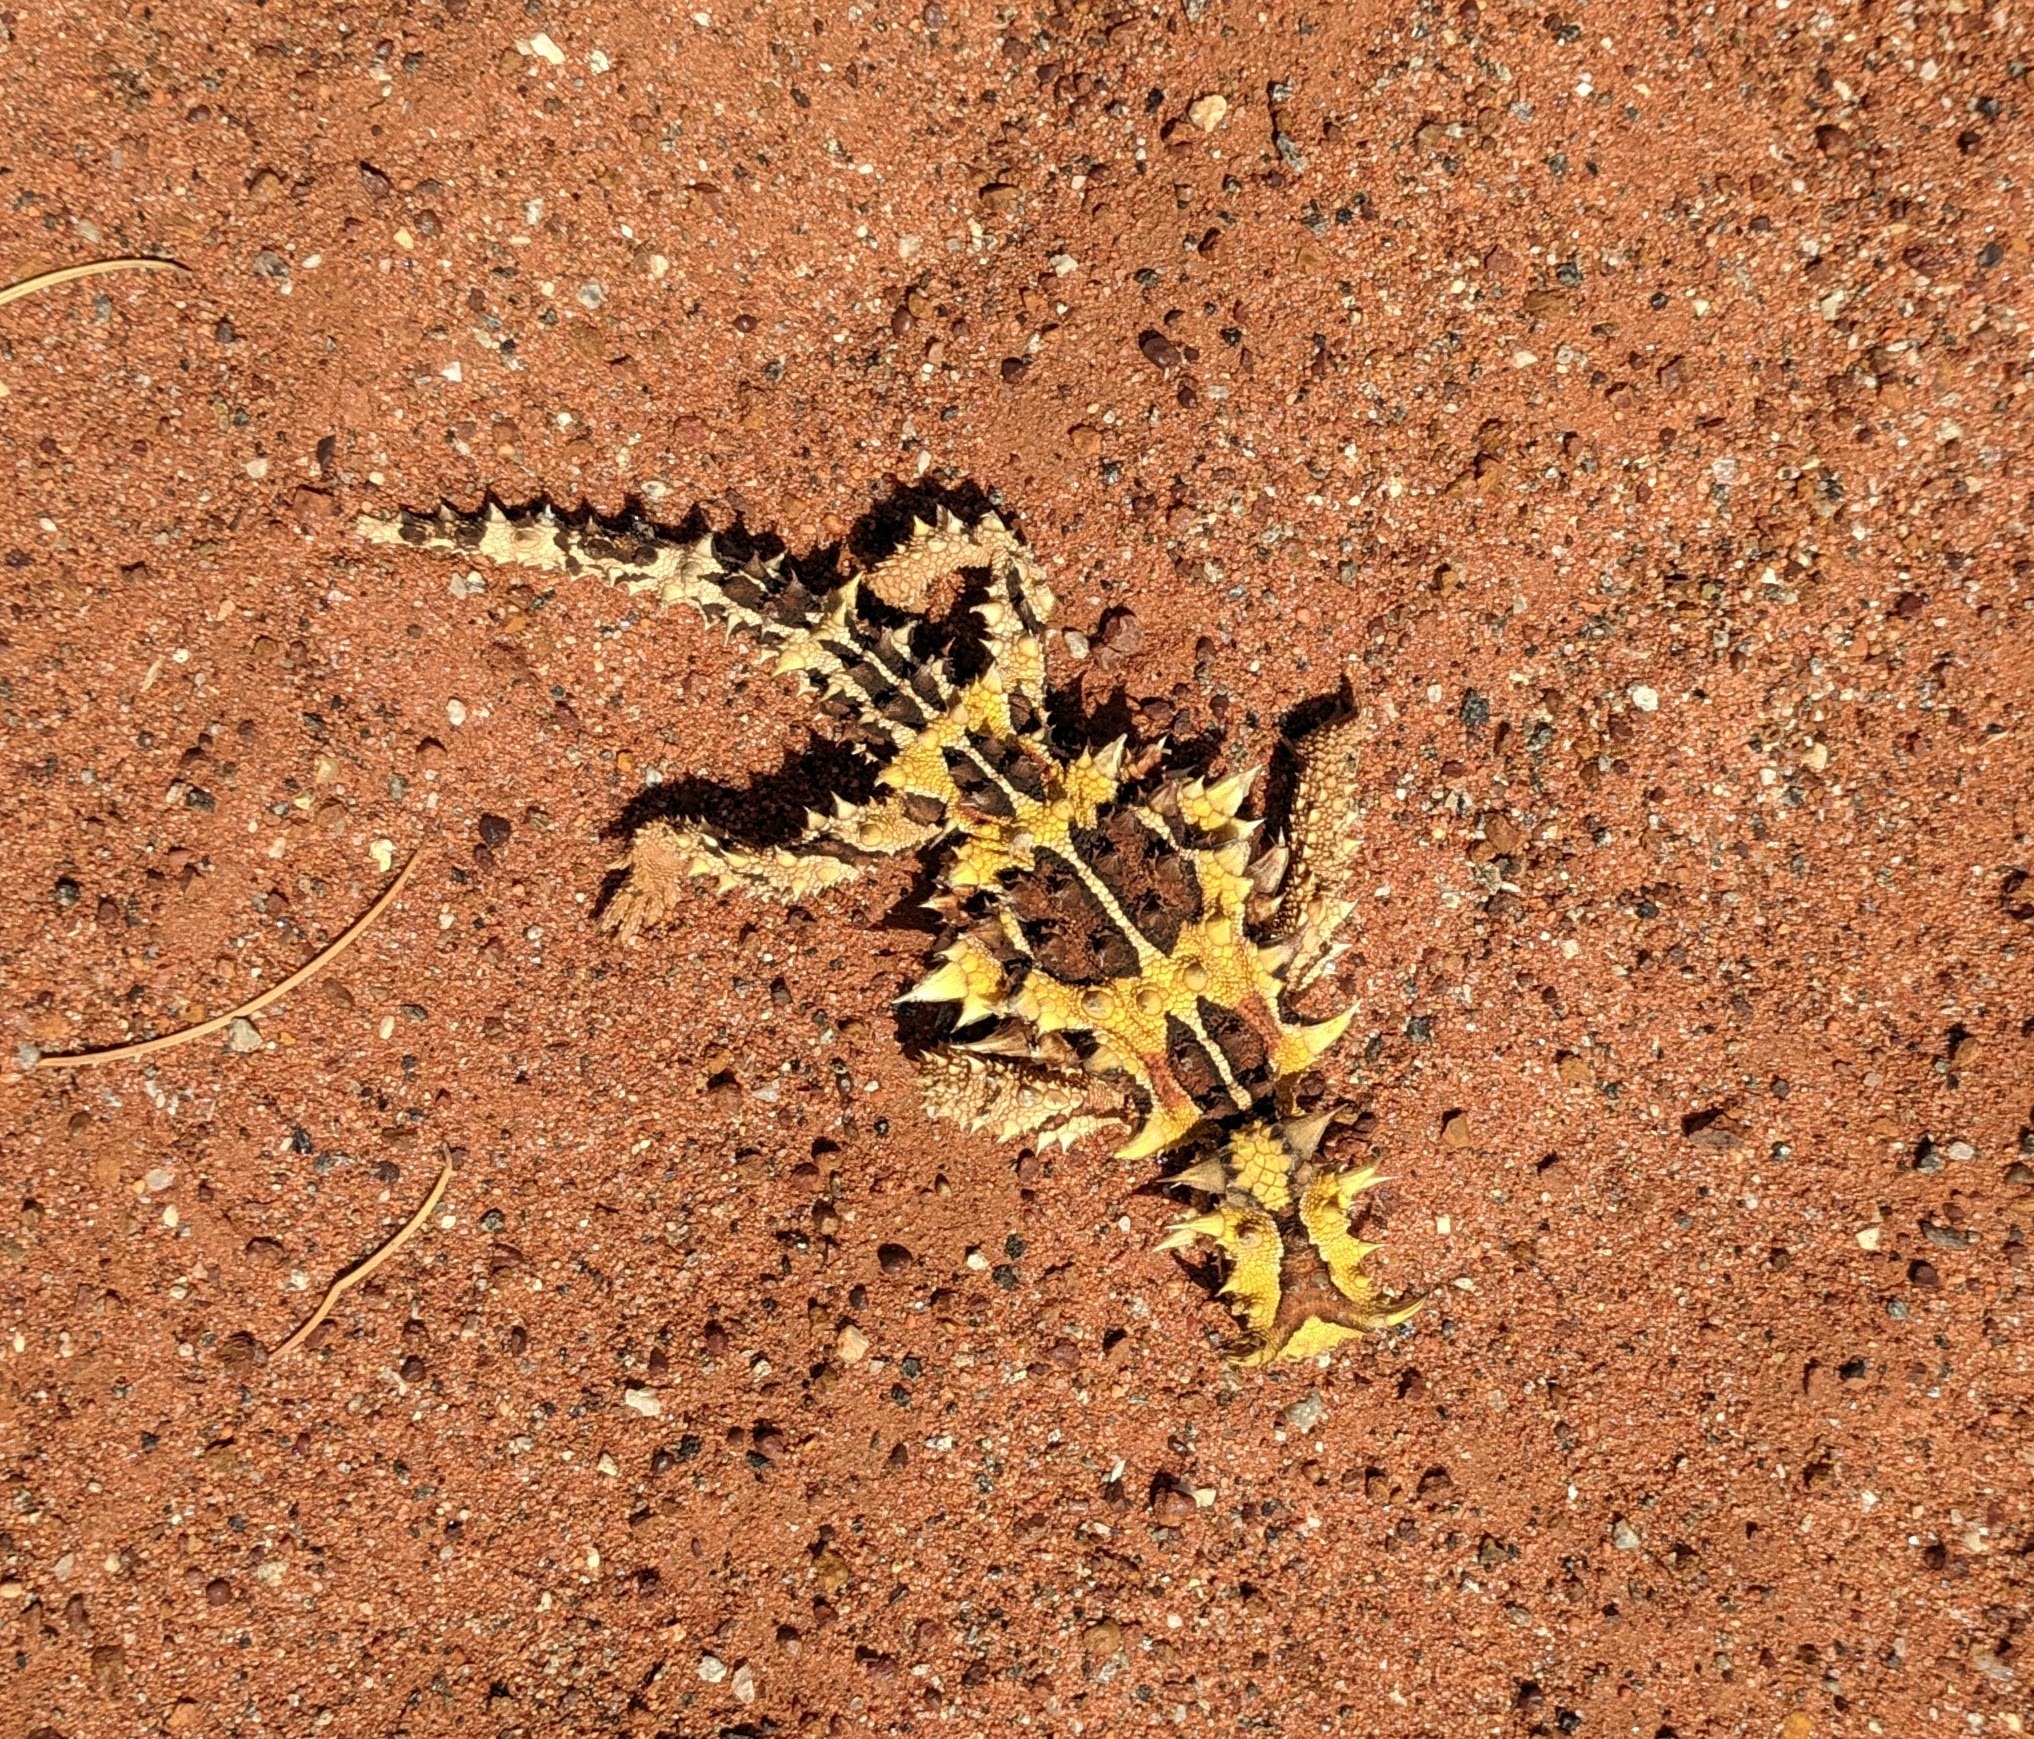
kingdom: Animalia
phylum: Chordata
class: Squamata
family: Agamidae
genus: Moloch
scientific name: Moloch horridus
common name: Mountain devil
